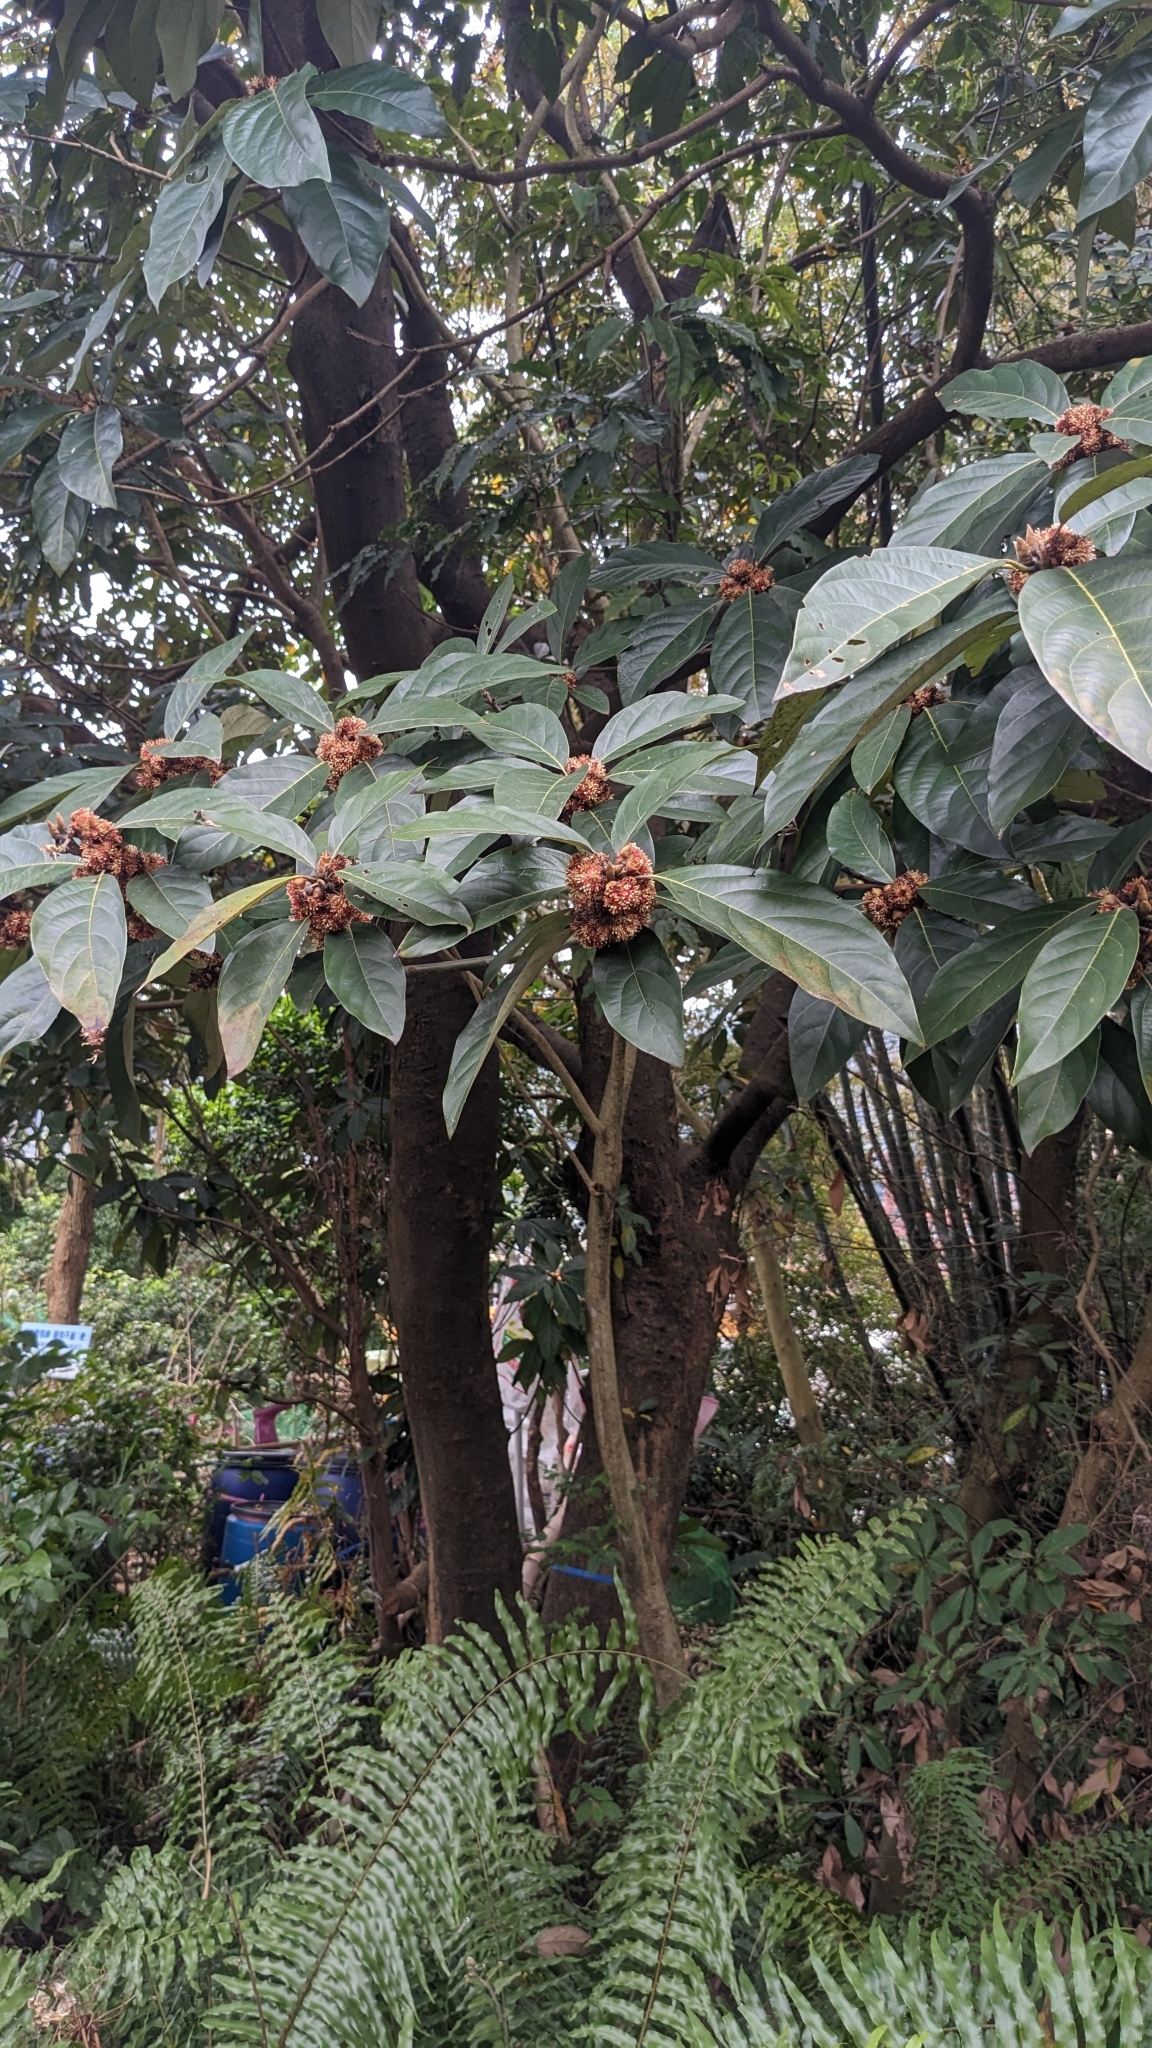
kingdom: Plantae
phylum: Tracheophyta
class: Magnoliopsida
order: Laurales
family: Lauraceae
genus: Lindera
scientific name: Lindera megaphylla
